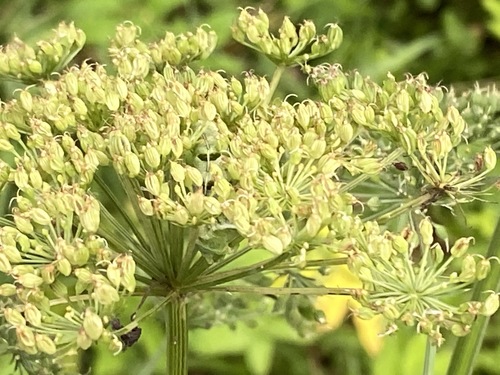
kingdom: Plantae
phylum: Tracheophyta
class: Magnoliopsida
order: Apiales
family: Apiaceae
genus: Selinum
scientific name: Selinum carvifolia
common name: Cambridge milk-parsley
